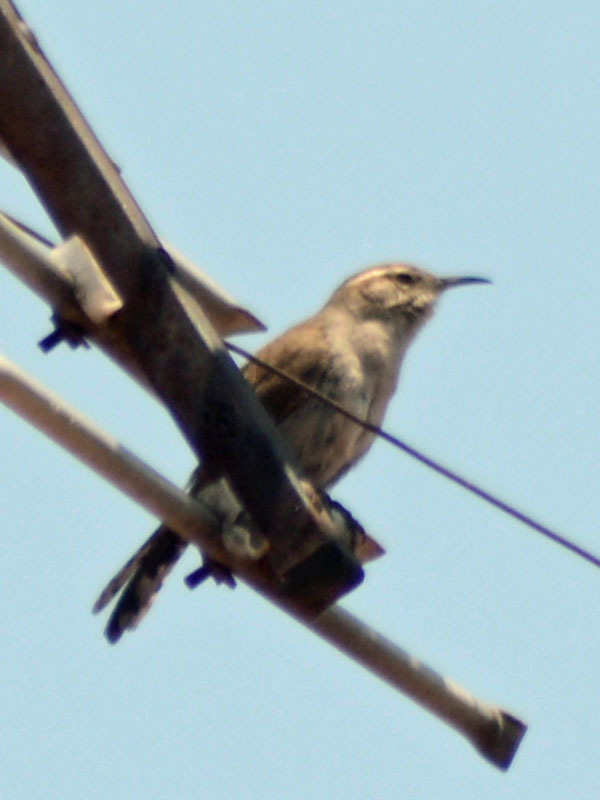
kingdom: Animalia
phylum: Chordata
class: Aves
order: Passeriformes
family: Troglodytidae
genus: Thryomanes
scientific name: Thryomanes bewickii
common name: Bewick's wren
